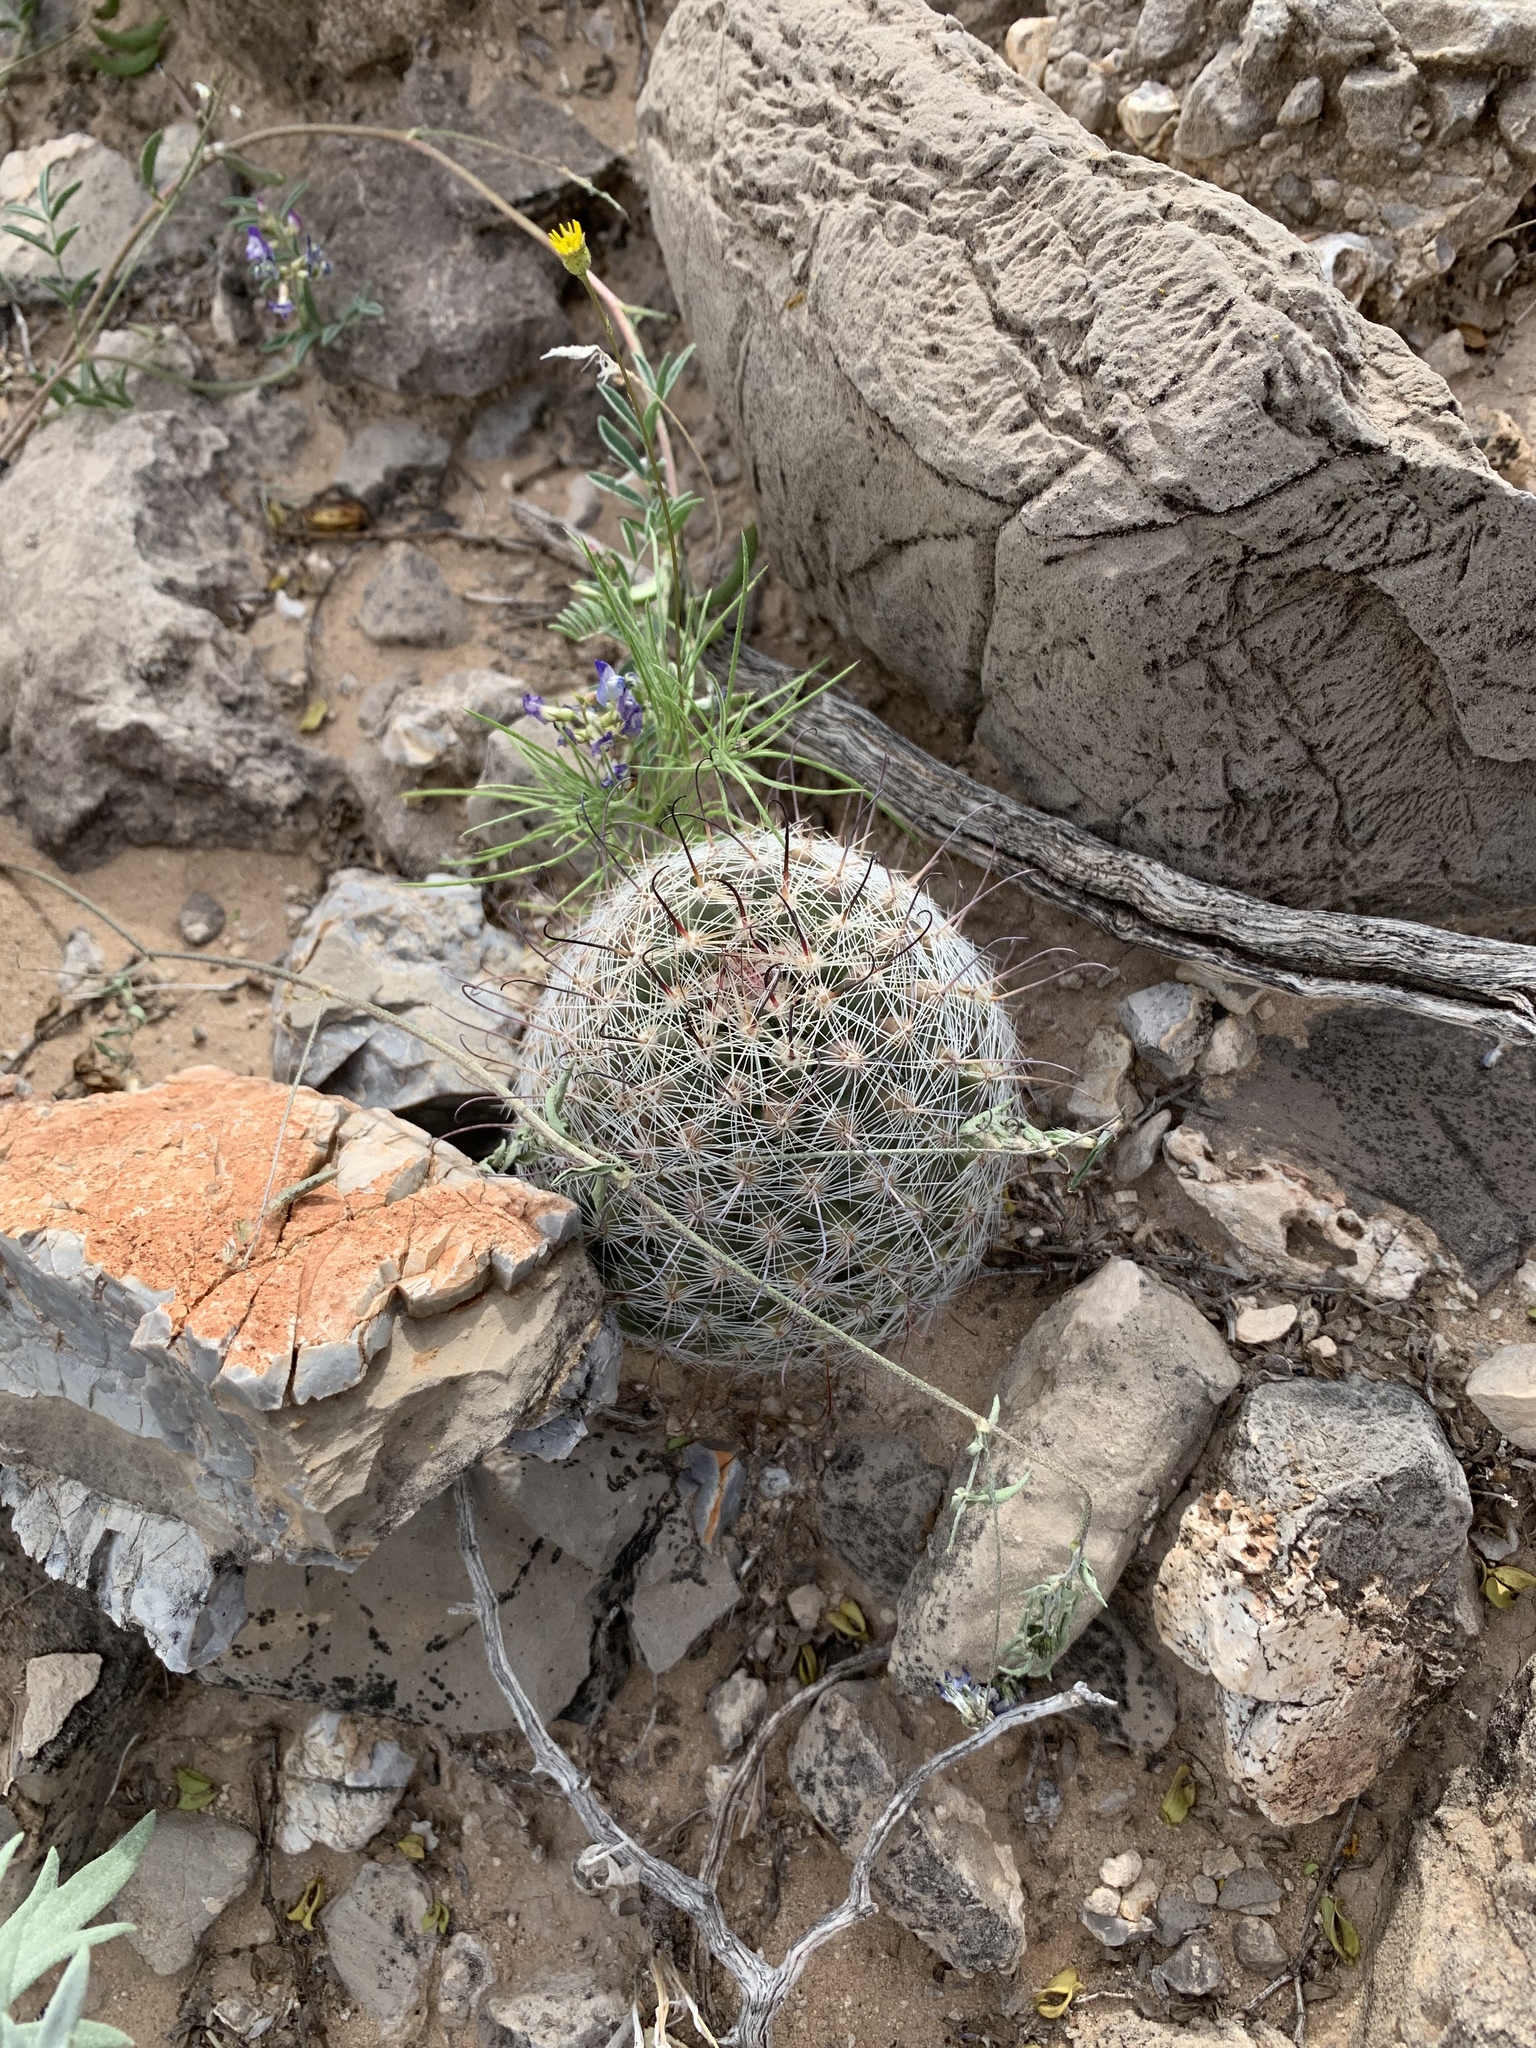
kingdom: Plantae
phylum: Tracheophyta
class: Magnoliopsida
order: Caryophyllales
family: Cactaceae
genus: Cochemiea
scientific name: Cochemiea grahamii
